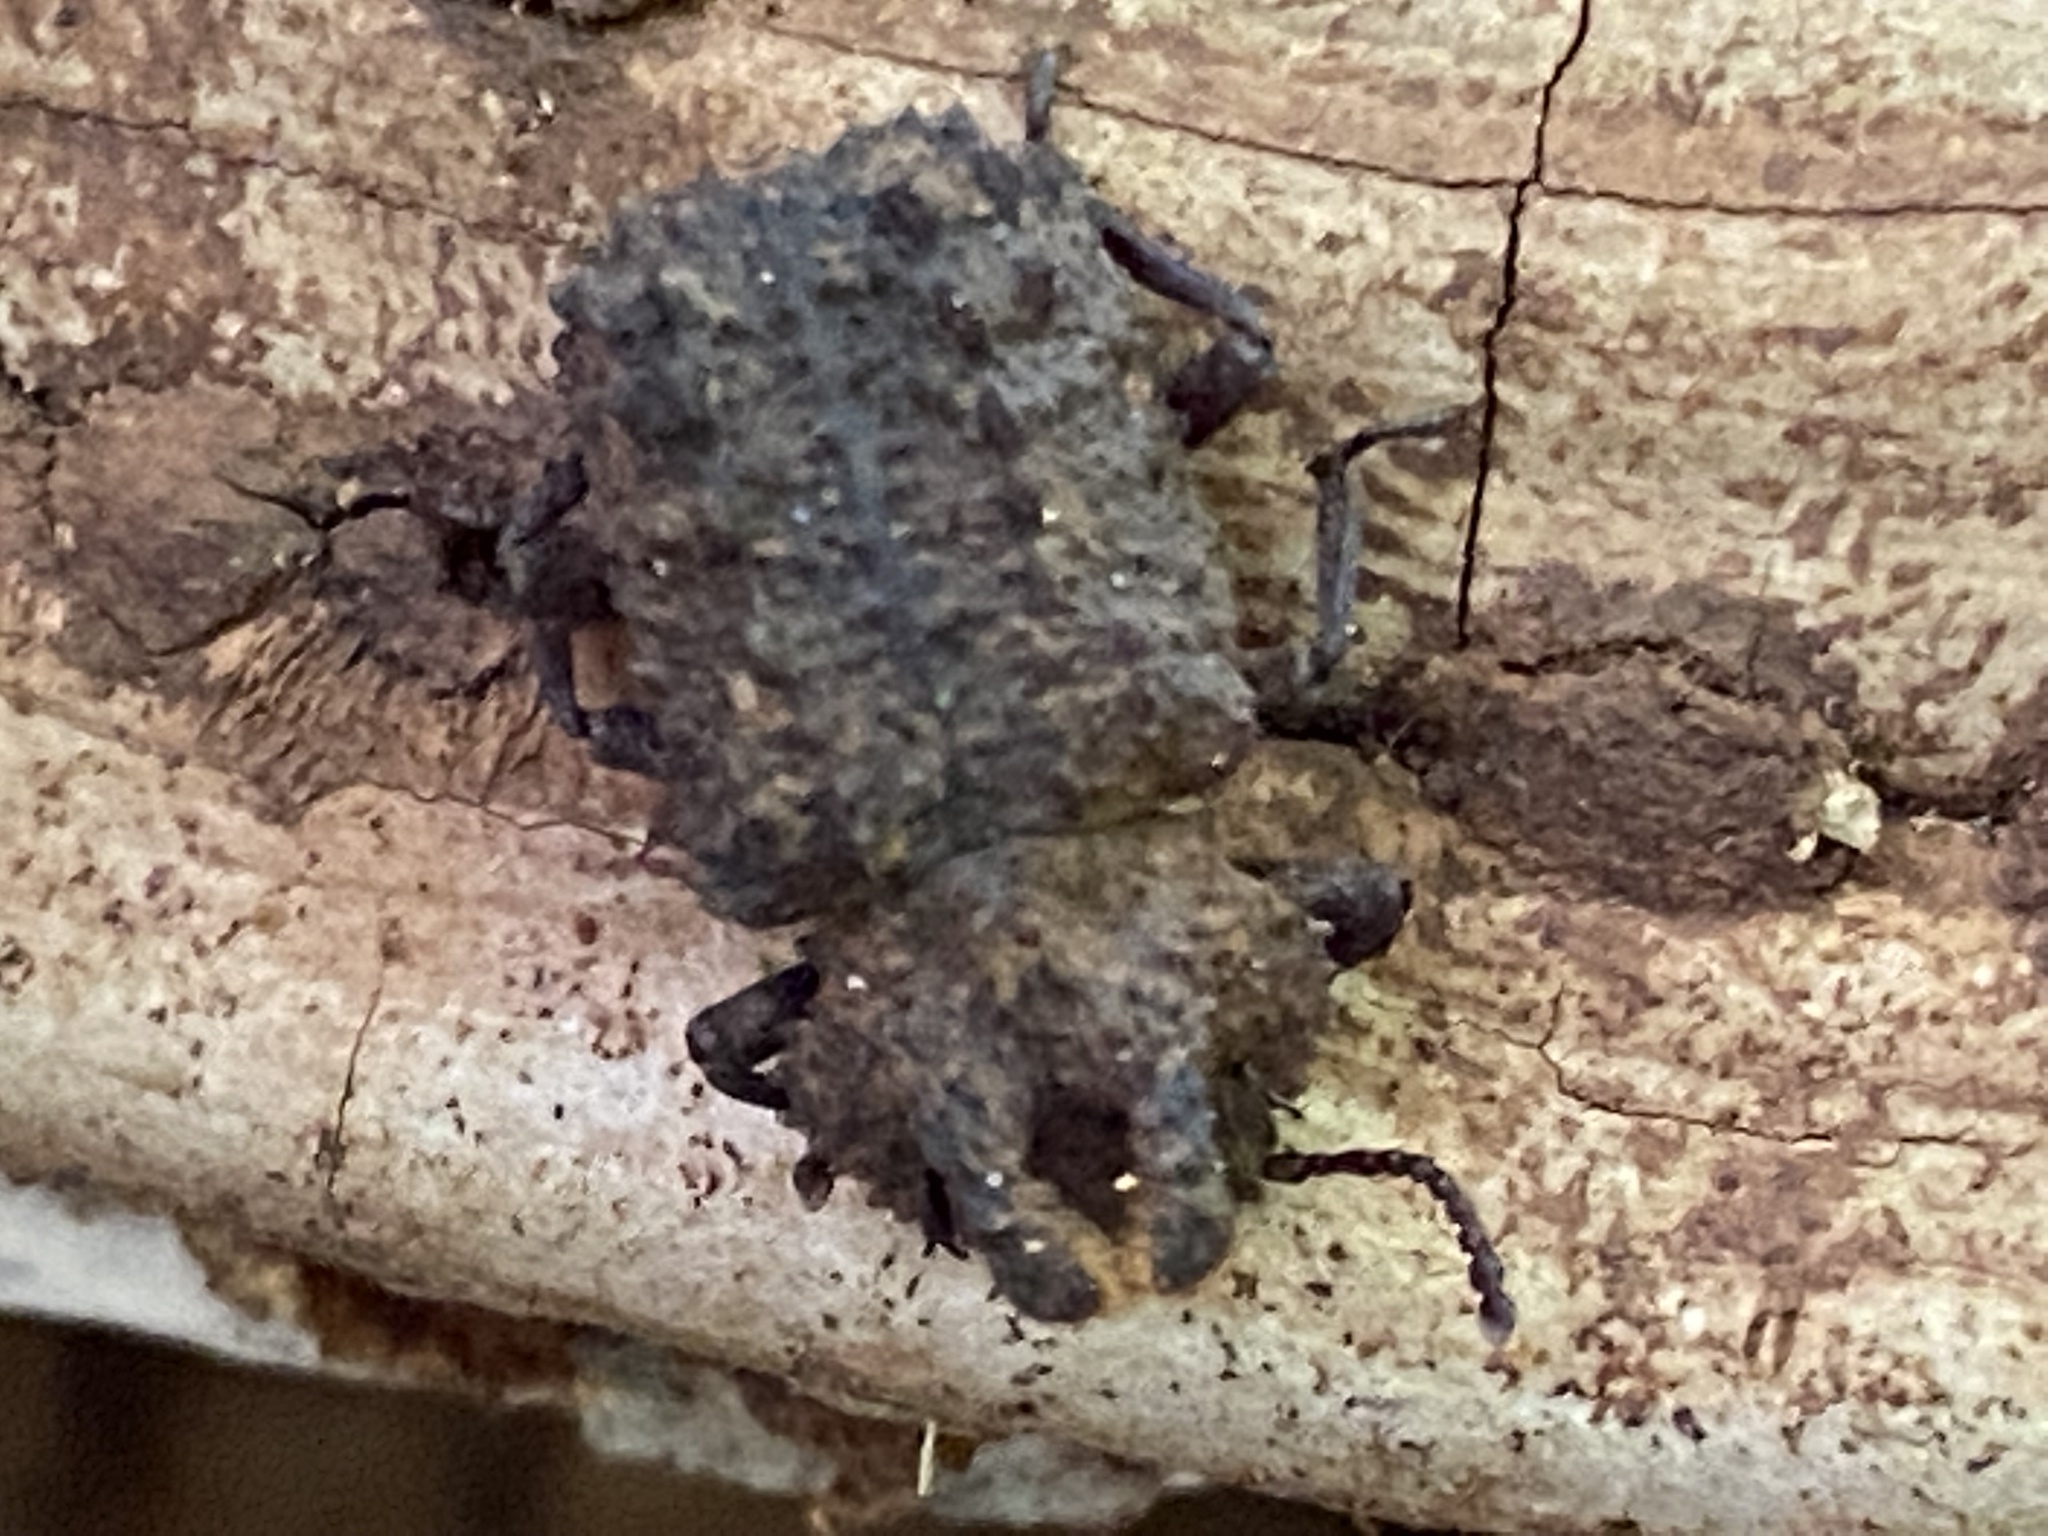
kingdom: Animalia
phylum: Arthropoda
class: Insecta
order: Coleoptera
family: Tenebrionidae
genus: Gnatocerus
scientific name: Gnatocerus cornutus
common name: Broad-horned flour beetle
